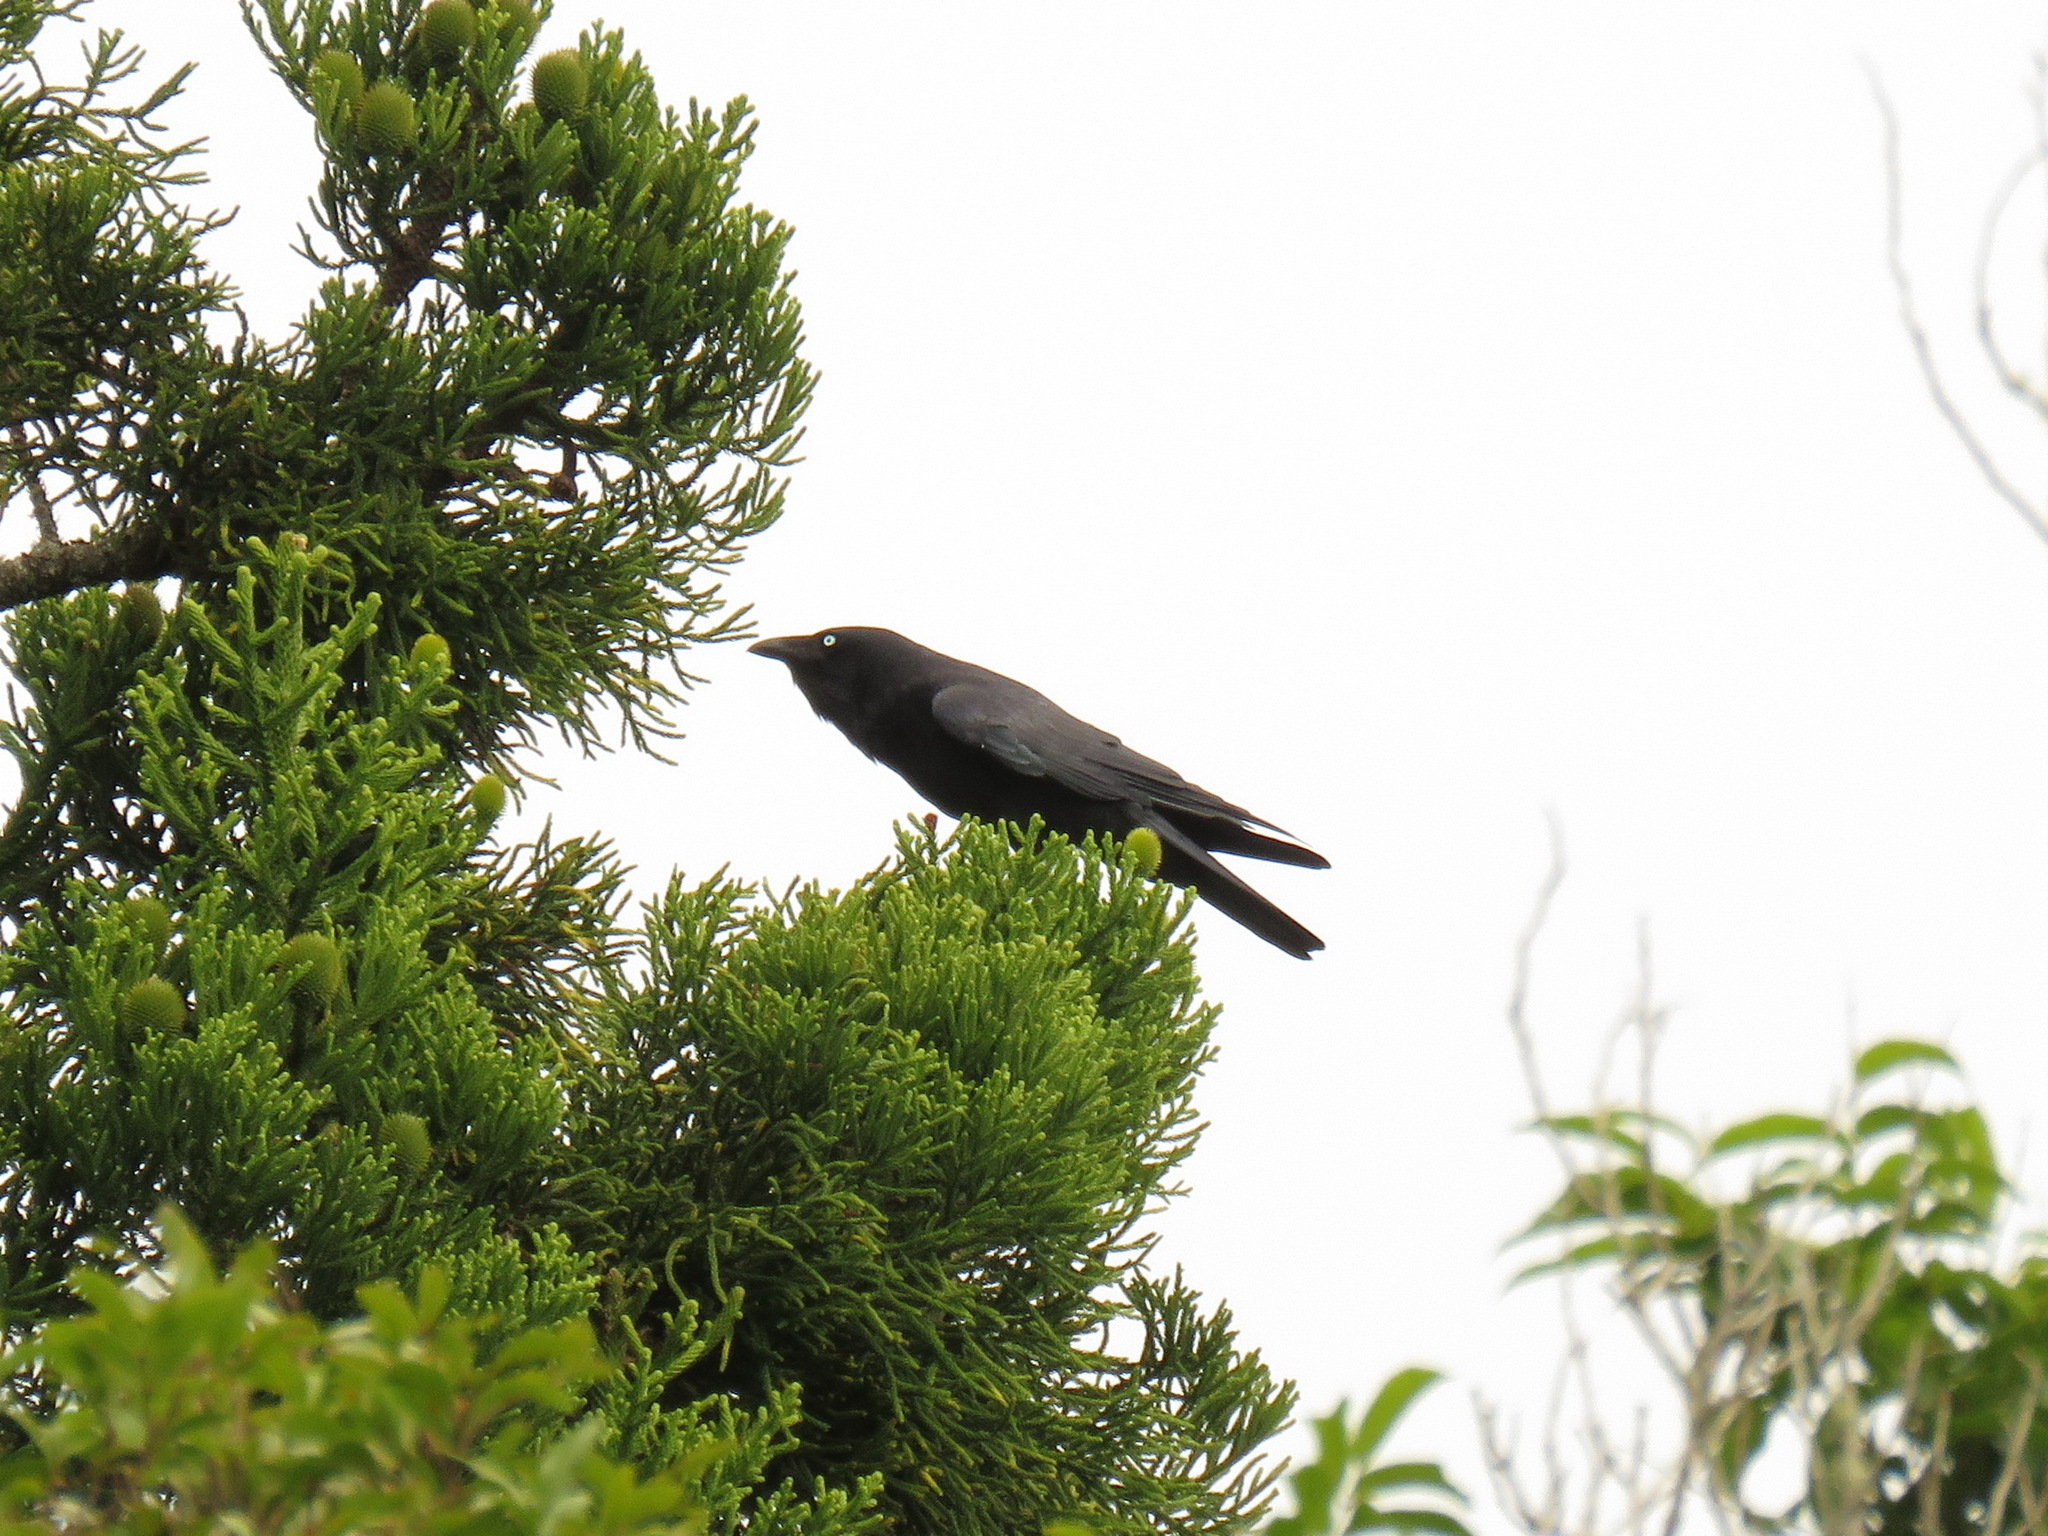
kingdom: Animalia
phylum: Chordata
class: Aves
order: Passeriformes
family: Corvidae
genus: Corvus
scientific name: Corvus orru
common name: Torresian crow
